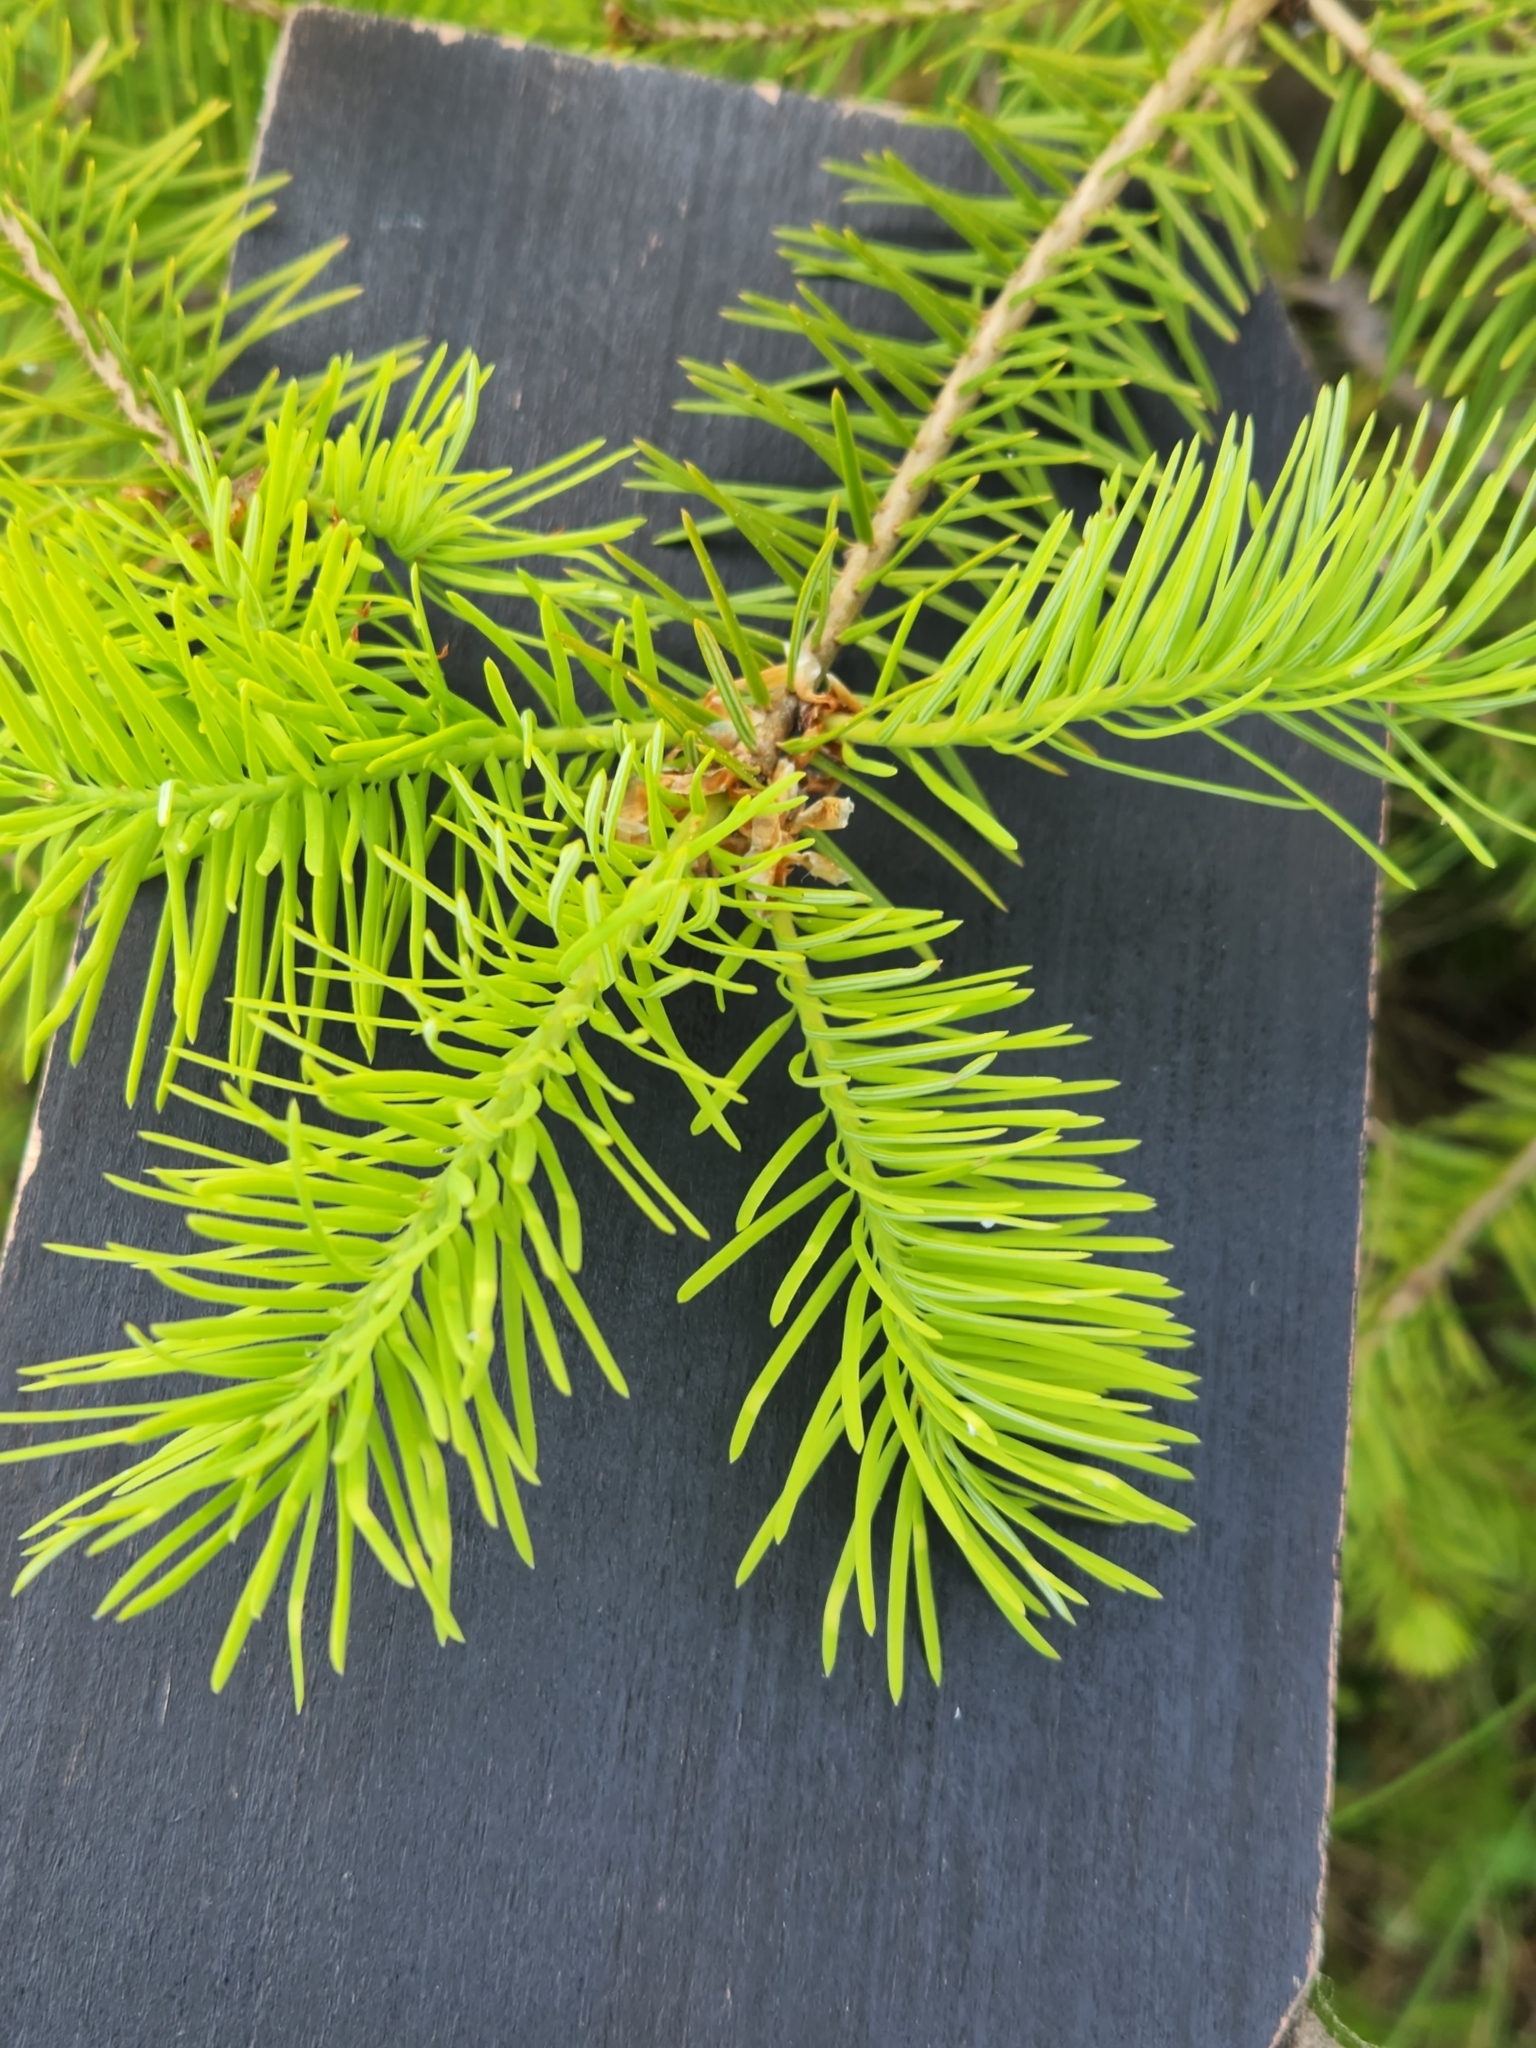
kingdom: Plantae
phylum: Tracheophyta
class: Pinopsida
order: Pinales
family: Pinaceae
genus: Pseudotsuga
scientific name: Pseudotsuga menziesii
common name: Douglas fir
